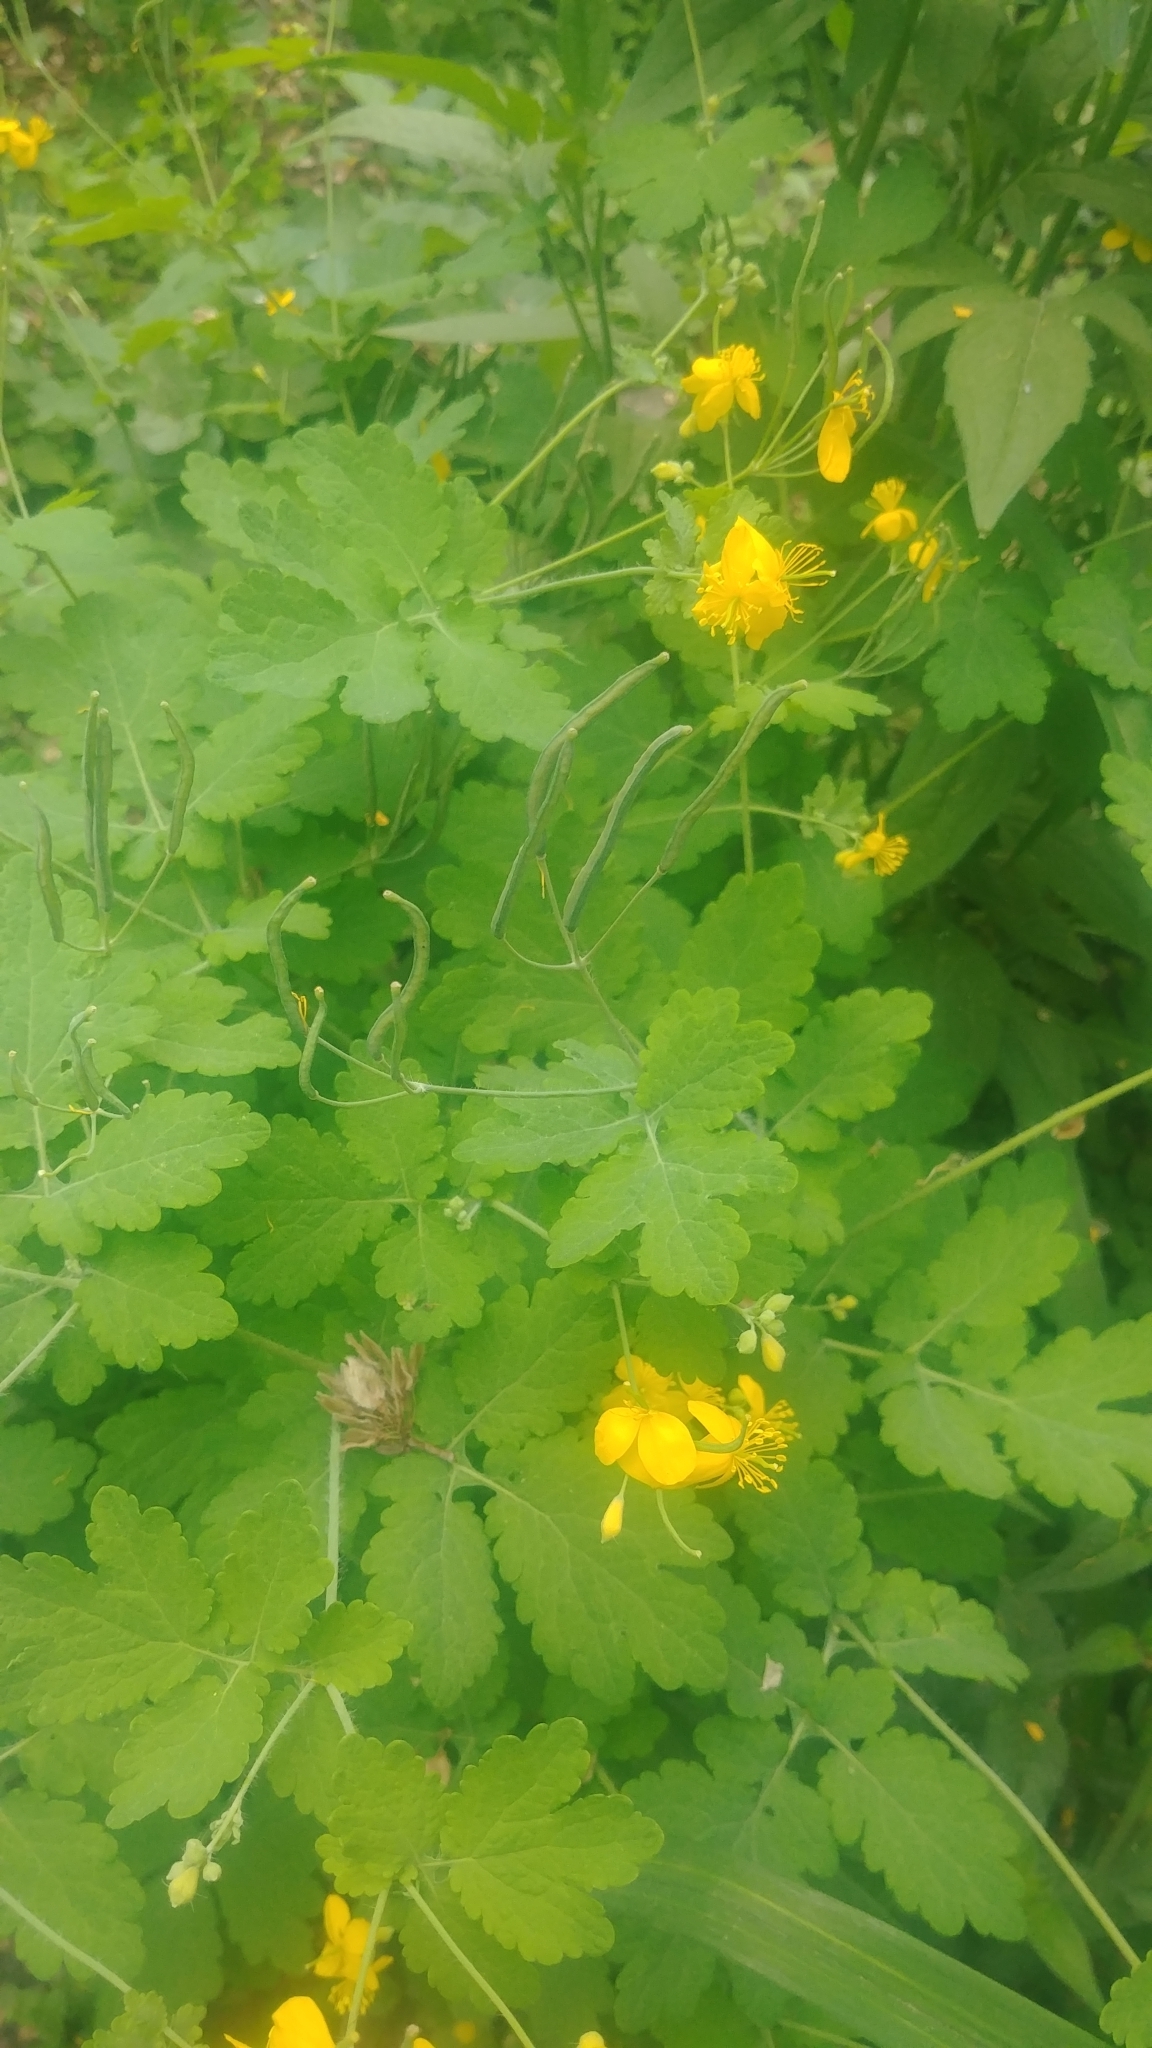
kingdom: Plantae
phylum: Tracheophyta
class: Magnoliopsida
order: Ranunculales
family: Papaveraceae
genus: Chelidonium
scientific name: Chelidonium majus
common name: Greater celandine
